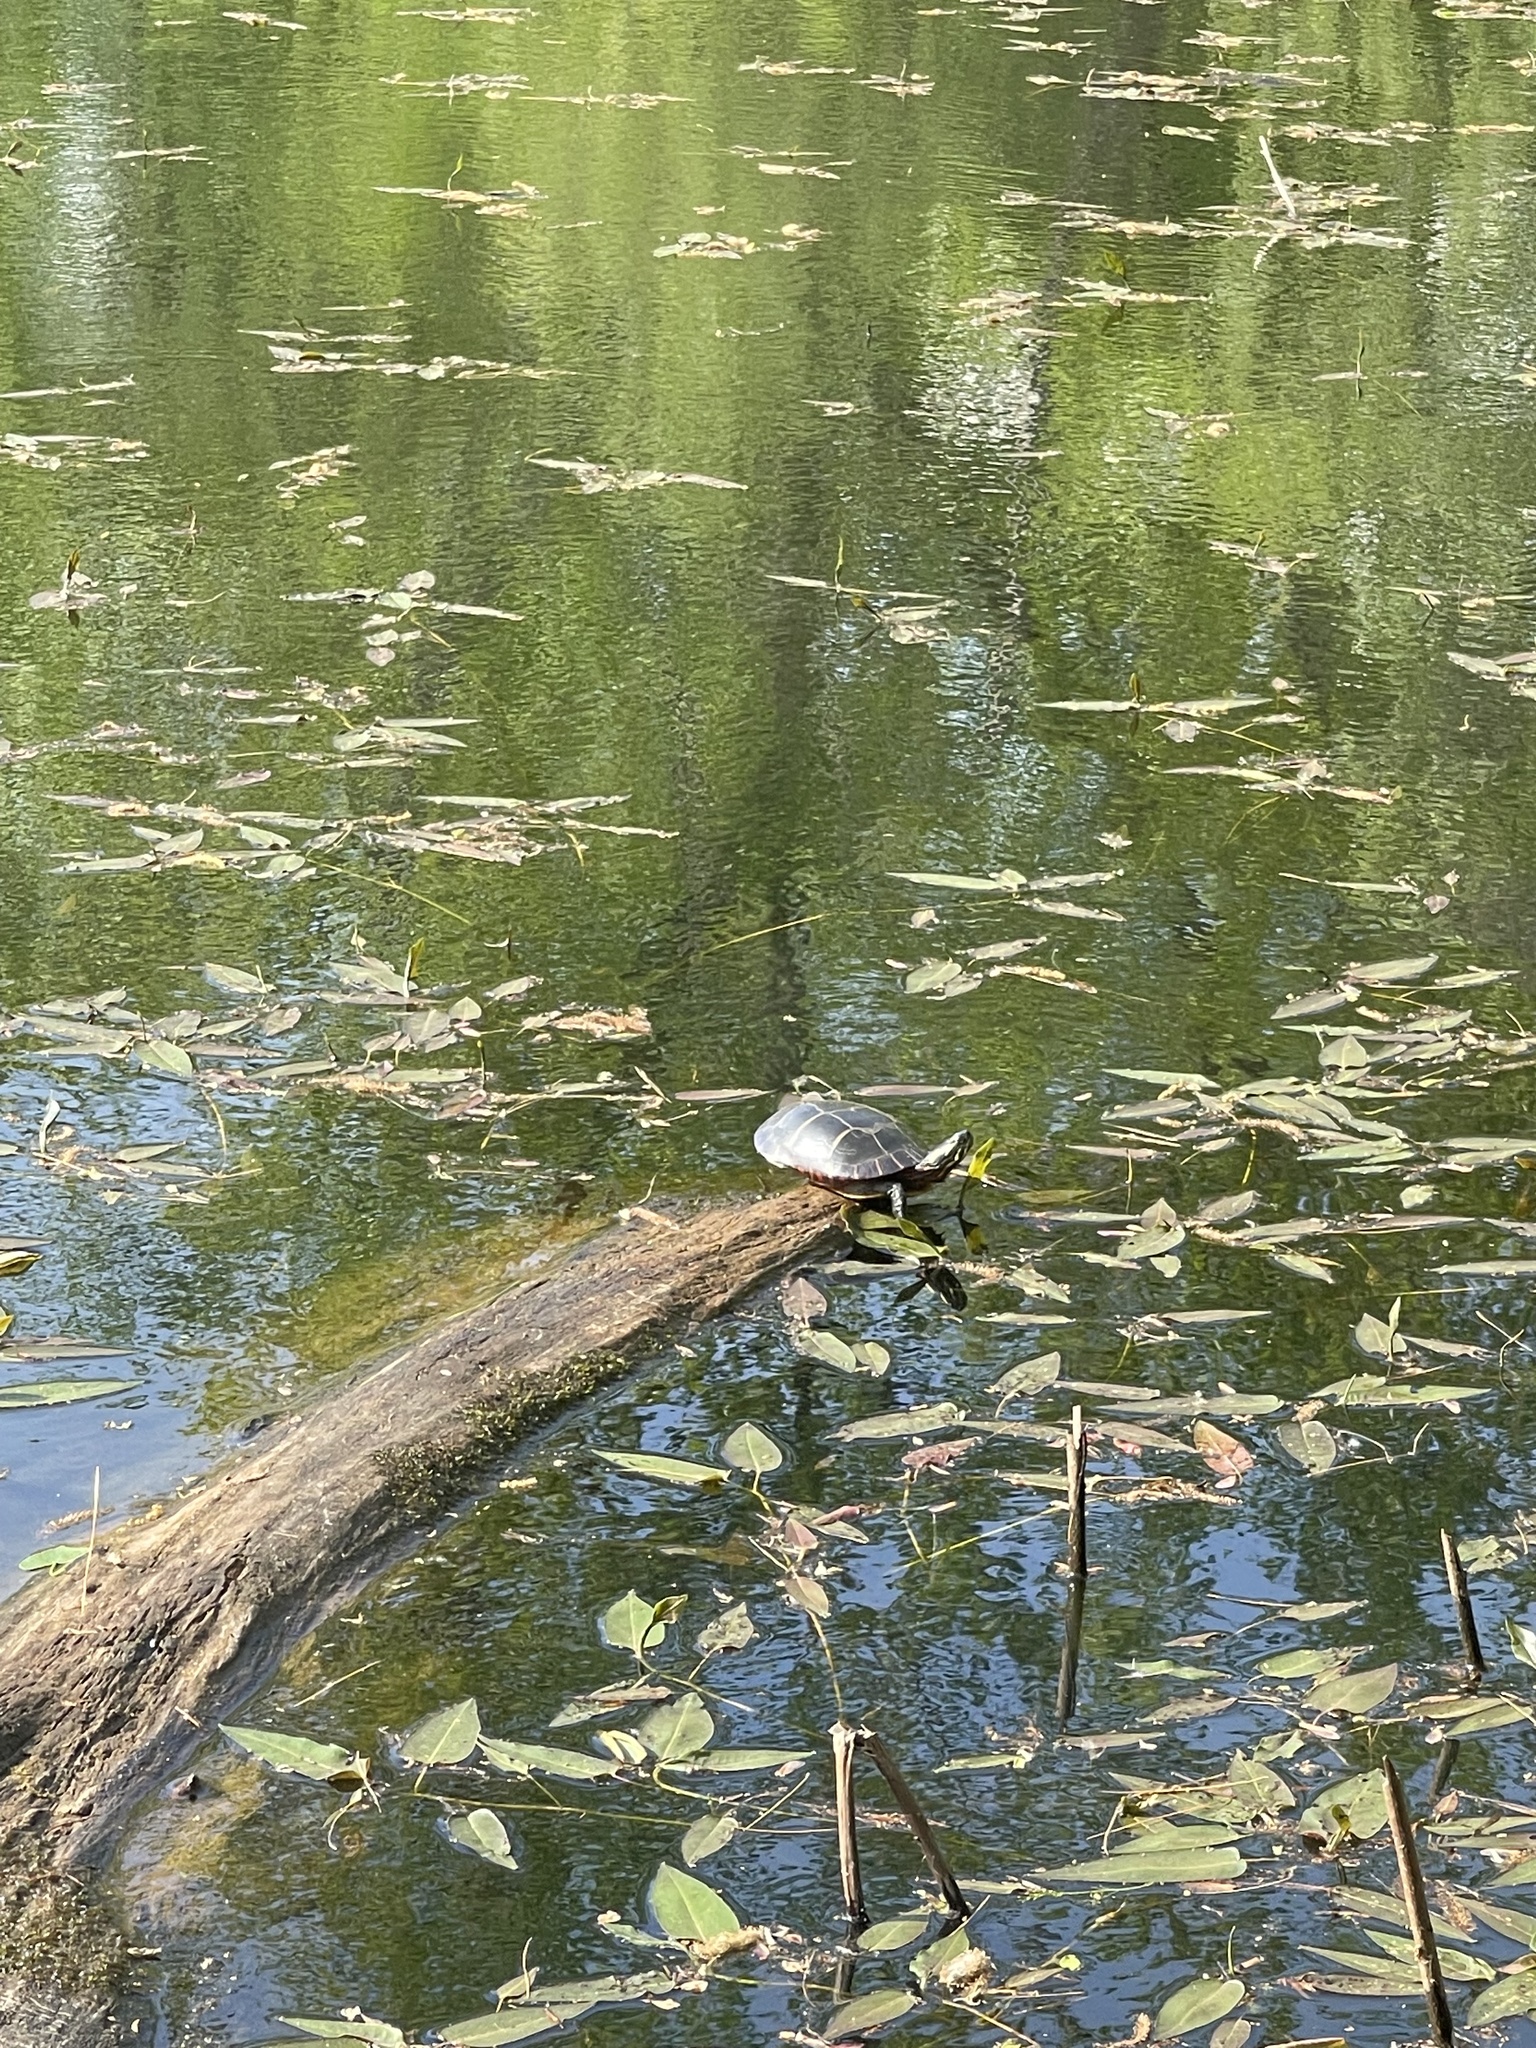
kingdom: Animalia
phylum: Chordata
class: Testudines
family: Emydidae
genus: Chrysemys
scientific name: Chrysemys picta
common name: Painted turtle
